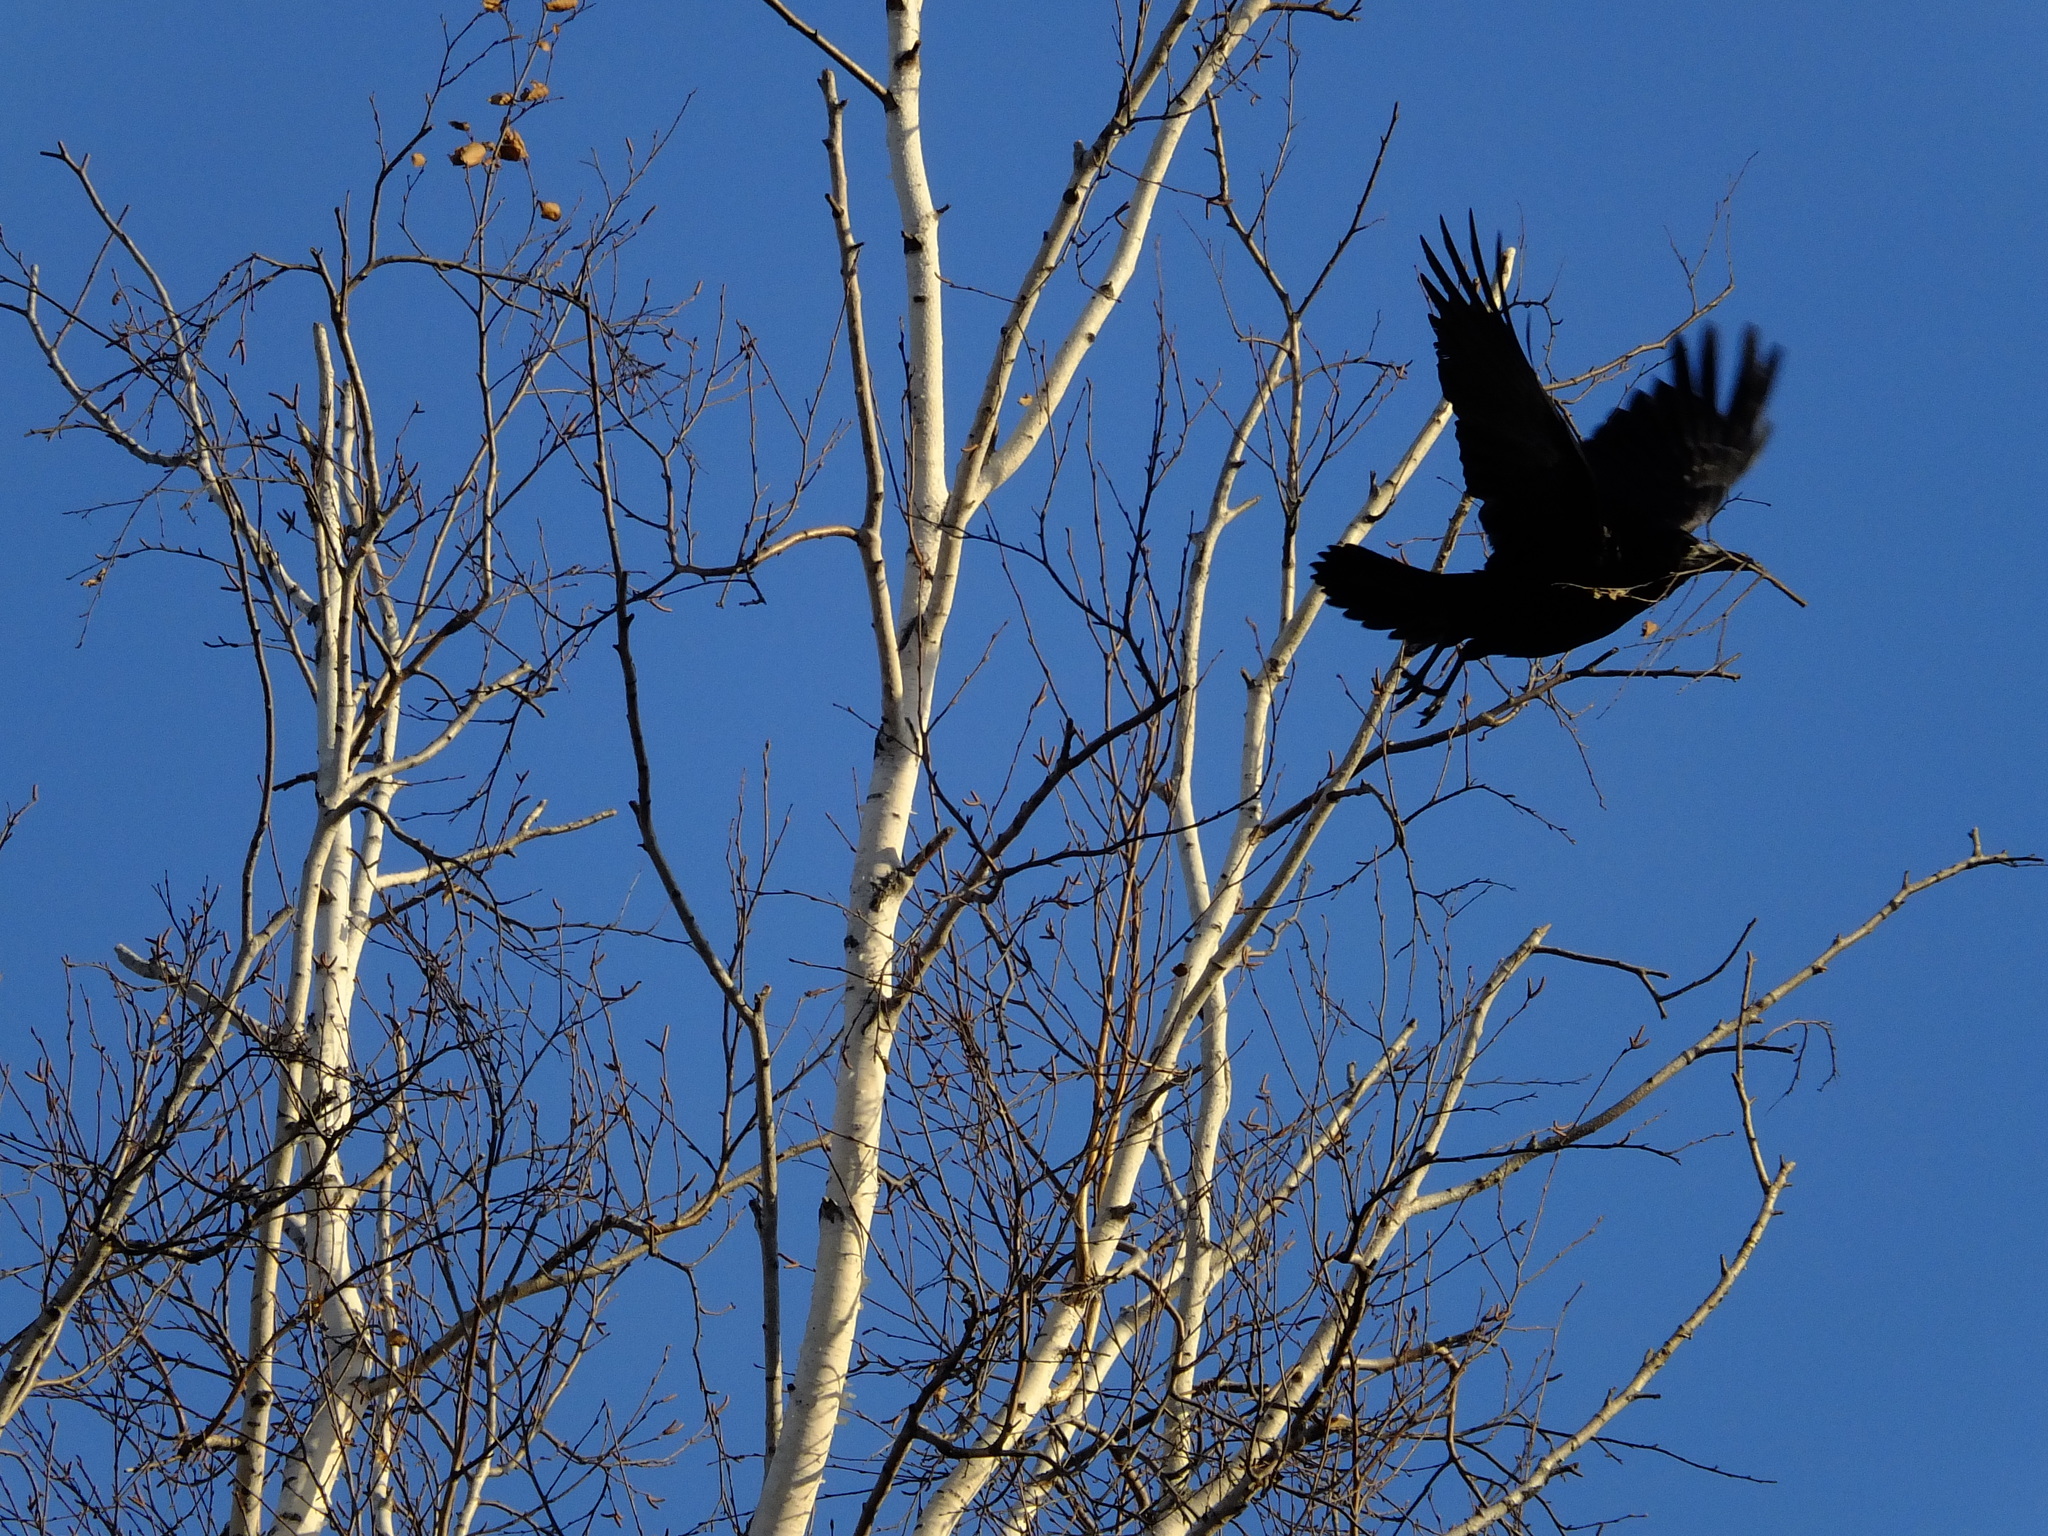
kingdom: Animalia
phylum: Chordata
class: Aves
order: Passeriformes
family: Corvidae
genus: Corvus
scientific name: Corvus frugilegus
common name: Rook
